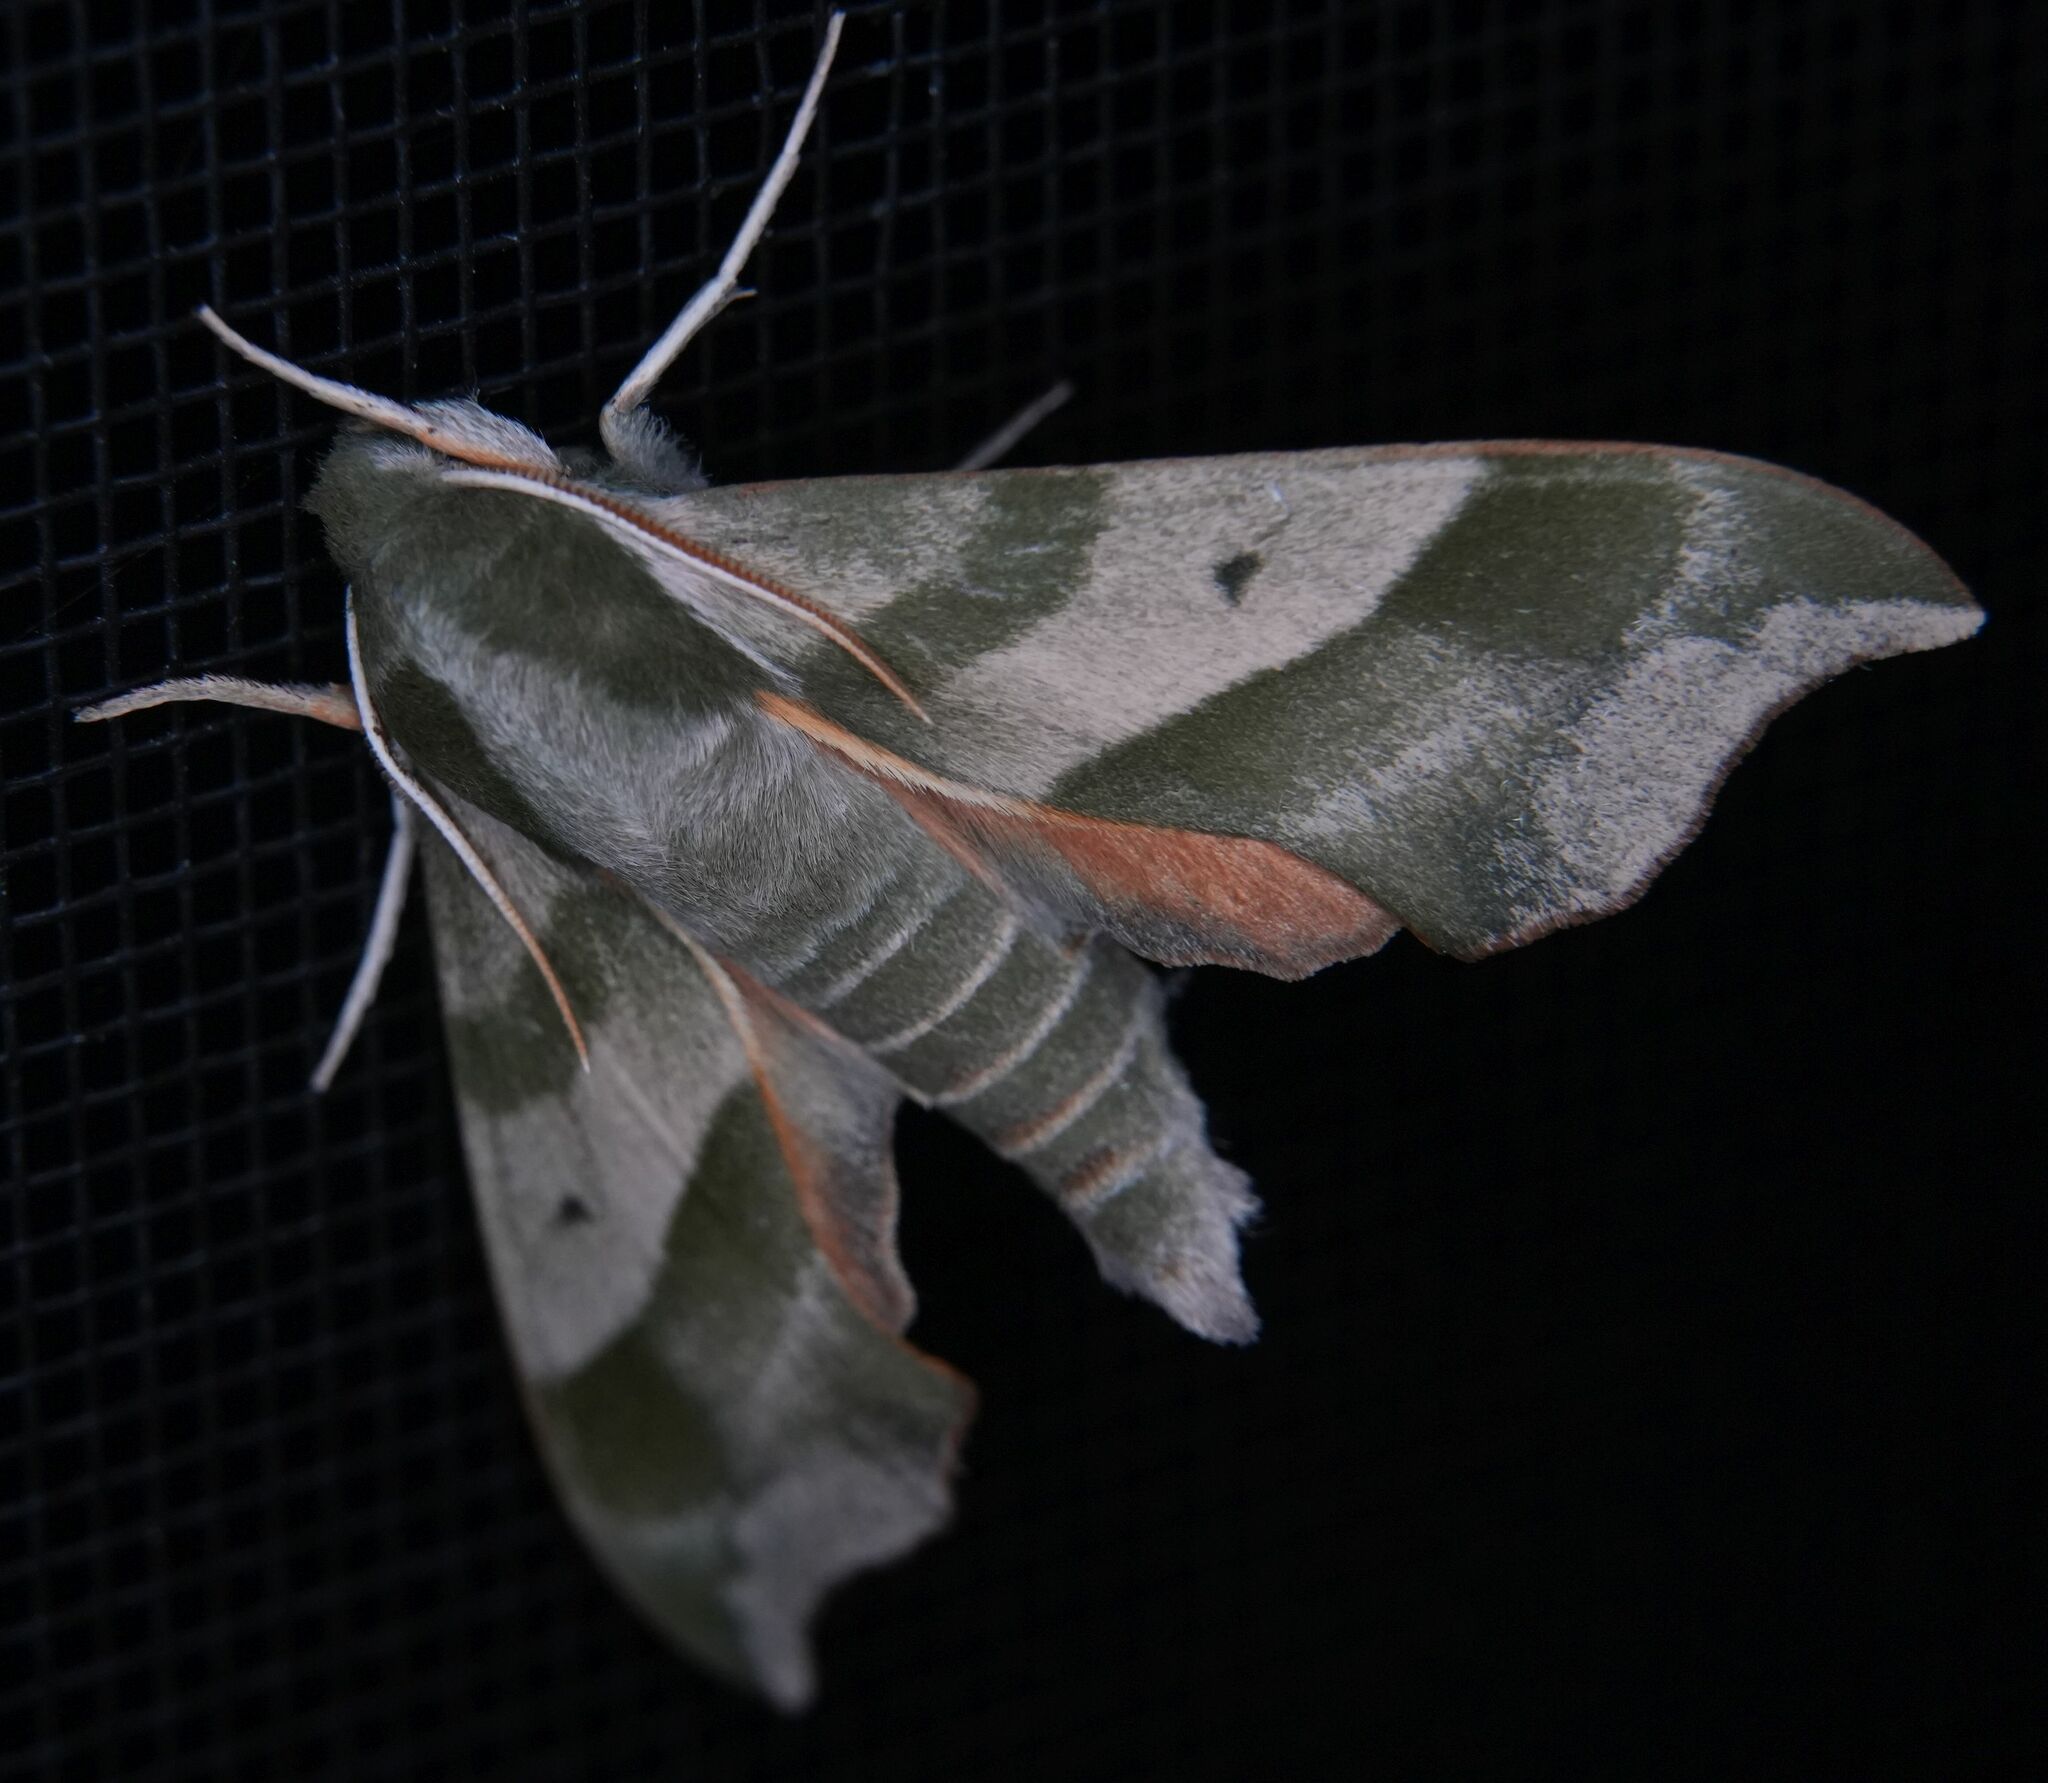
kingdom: Animalia
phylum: Arthropoda
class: Insecta
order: Lepidoptera
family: Sphingidae
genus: Darapsa
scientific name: Darapsa myron
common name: Hog sphinx
